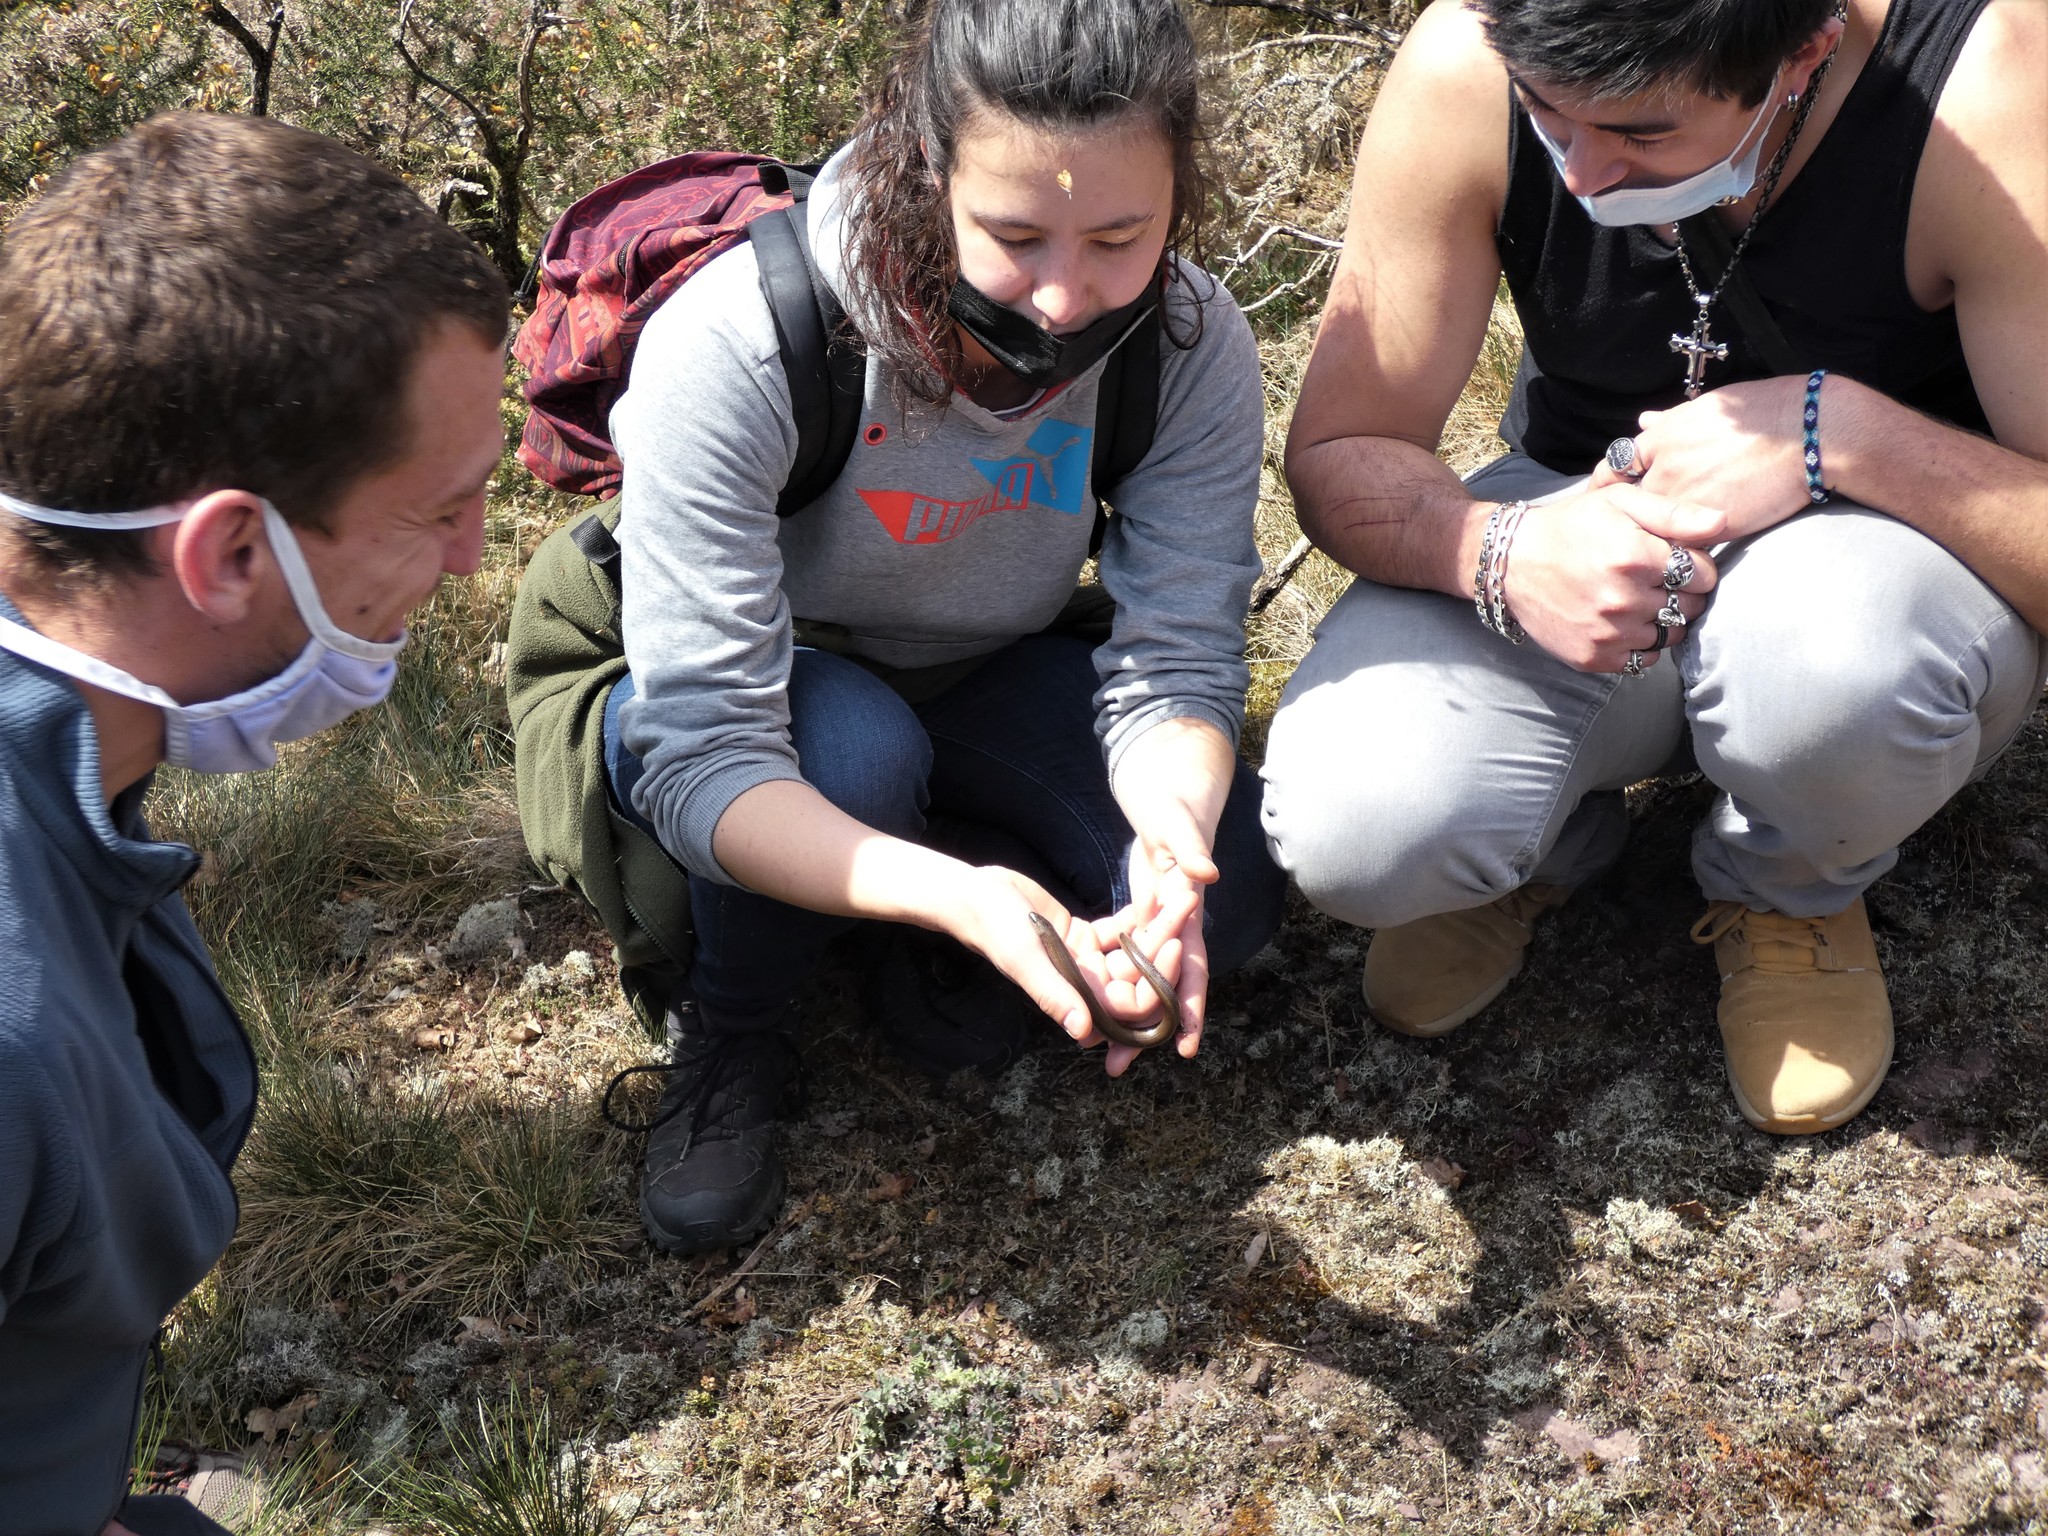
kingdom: Animalia
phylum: Chordata
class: Squamata
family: Anguidae
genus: Anguis
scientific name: Anguis fragilis
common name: Slow worm
